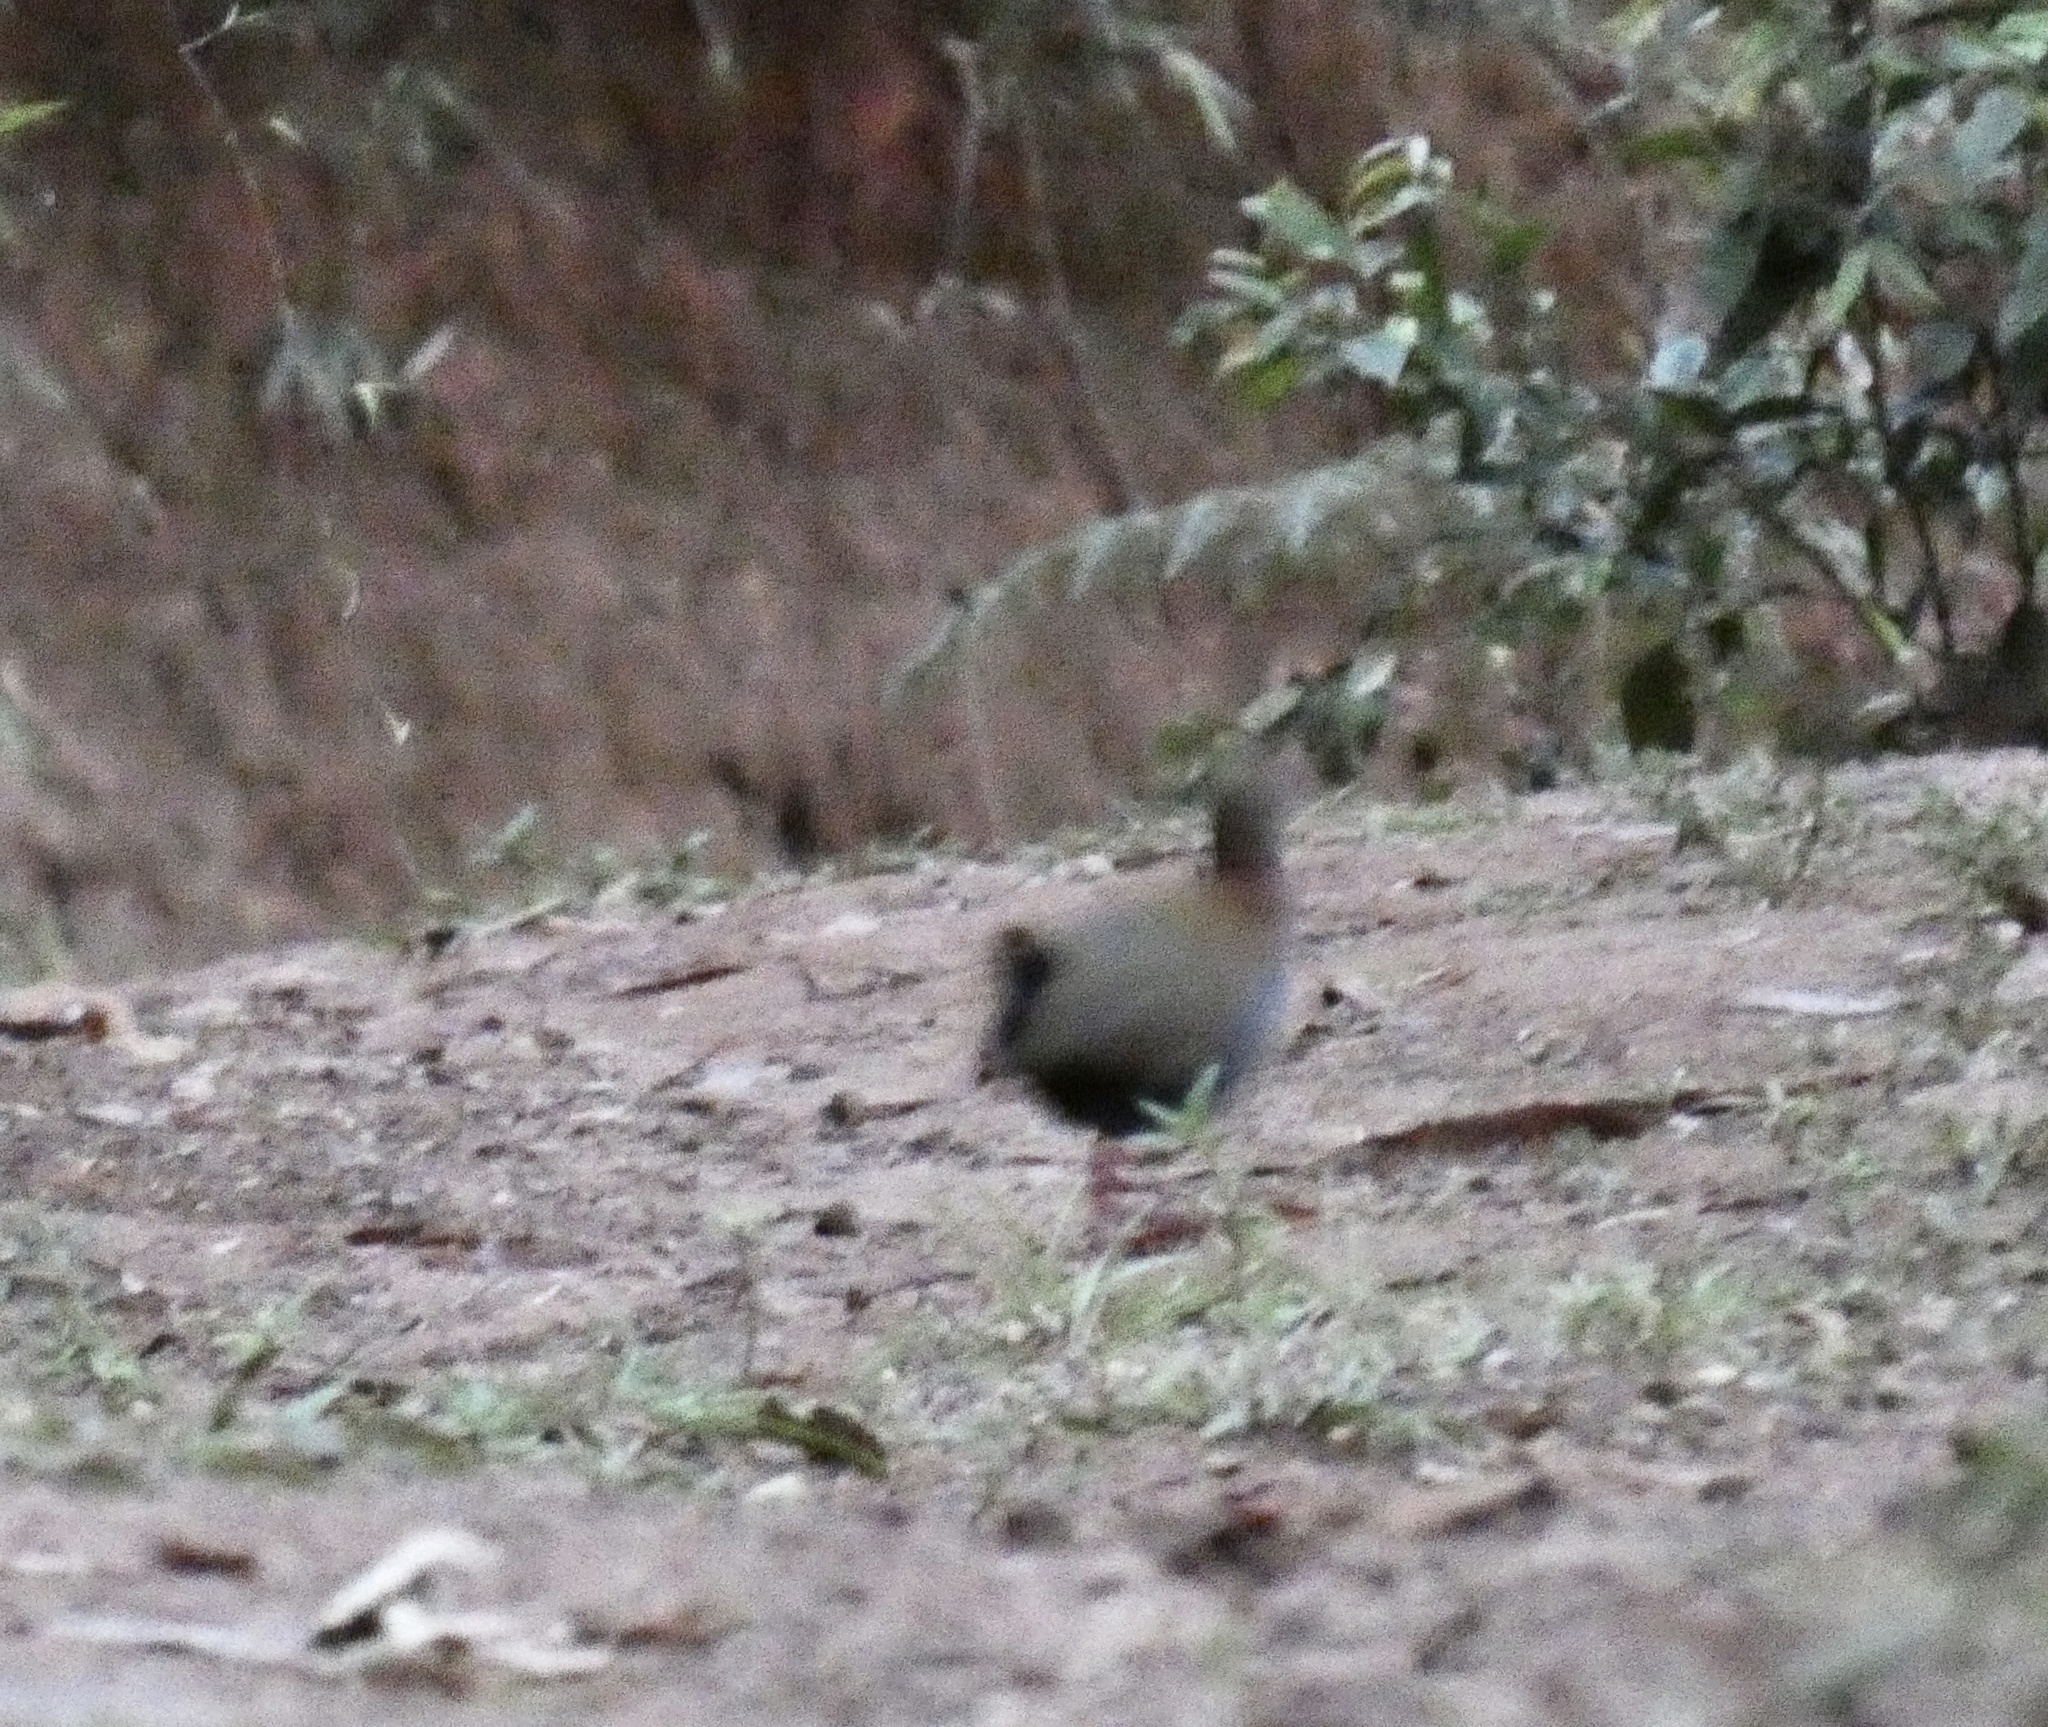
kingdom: Animalia
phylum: Chordata
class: Aves
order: Gruiformes
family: Rallidae
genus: Aramides
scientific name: Aramides saracura
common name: Slaty-breasted wood rail
